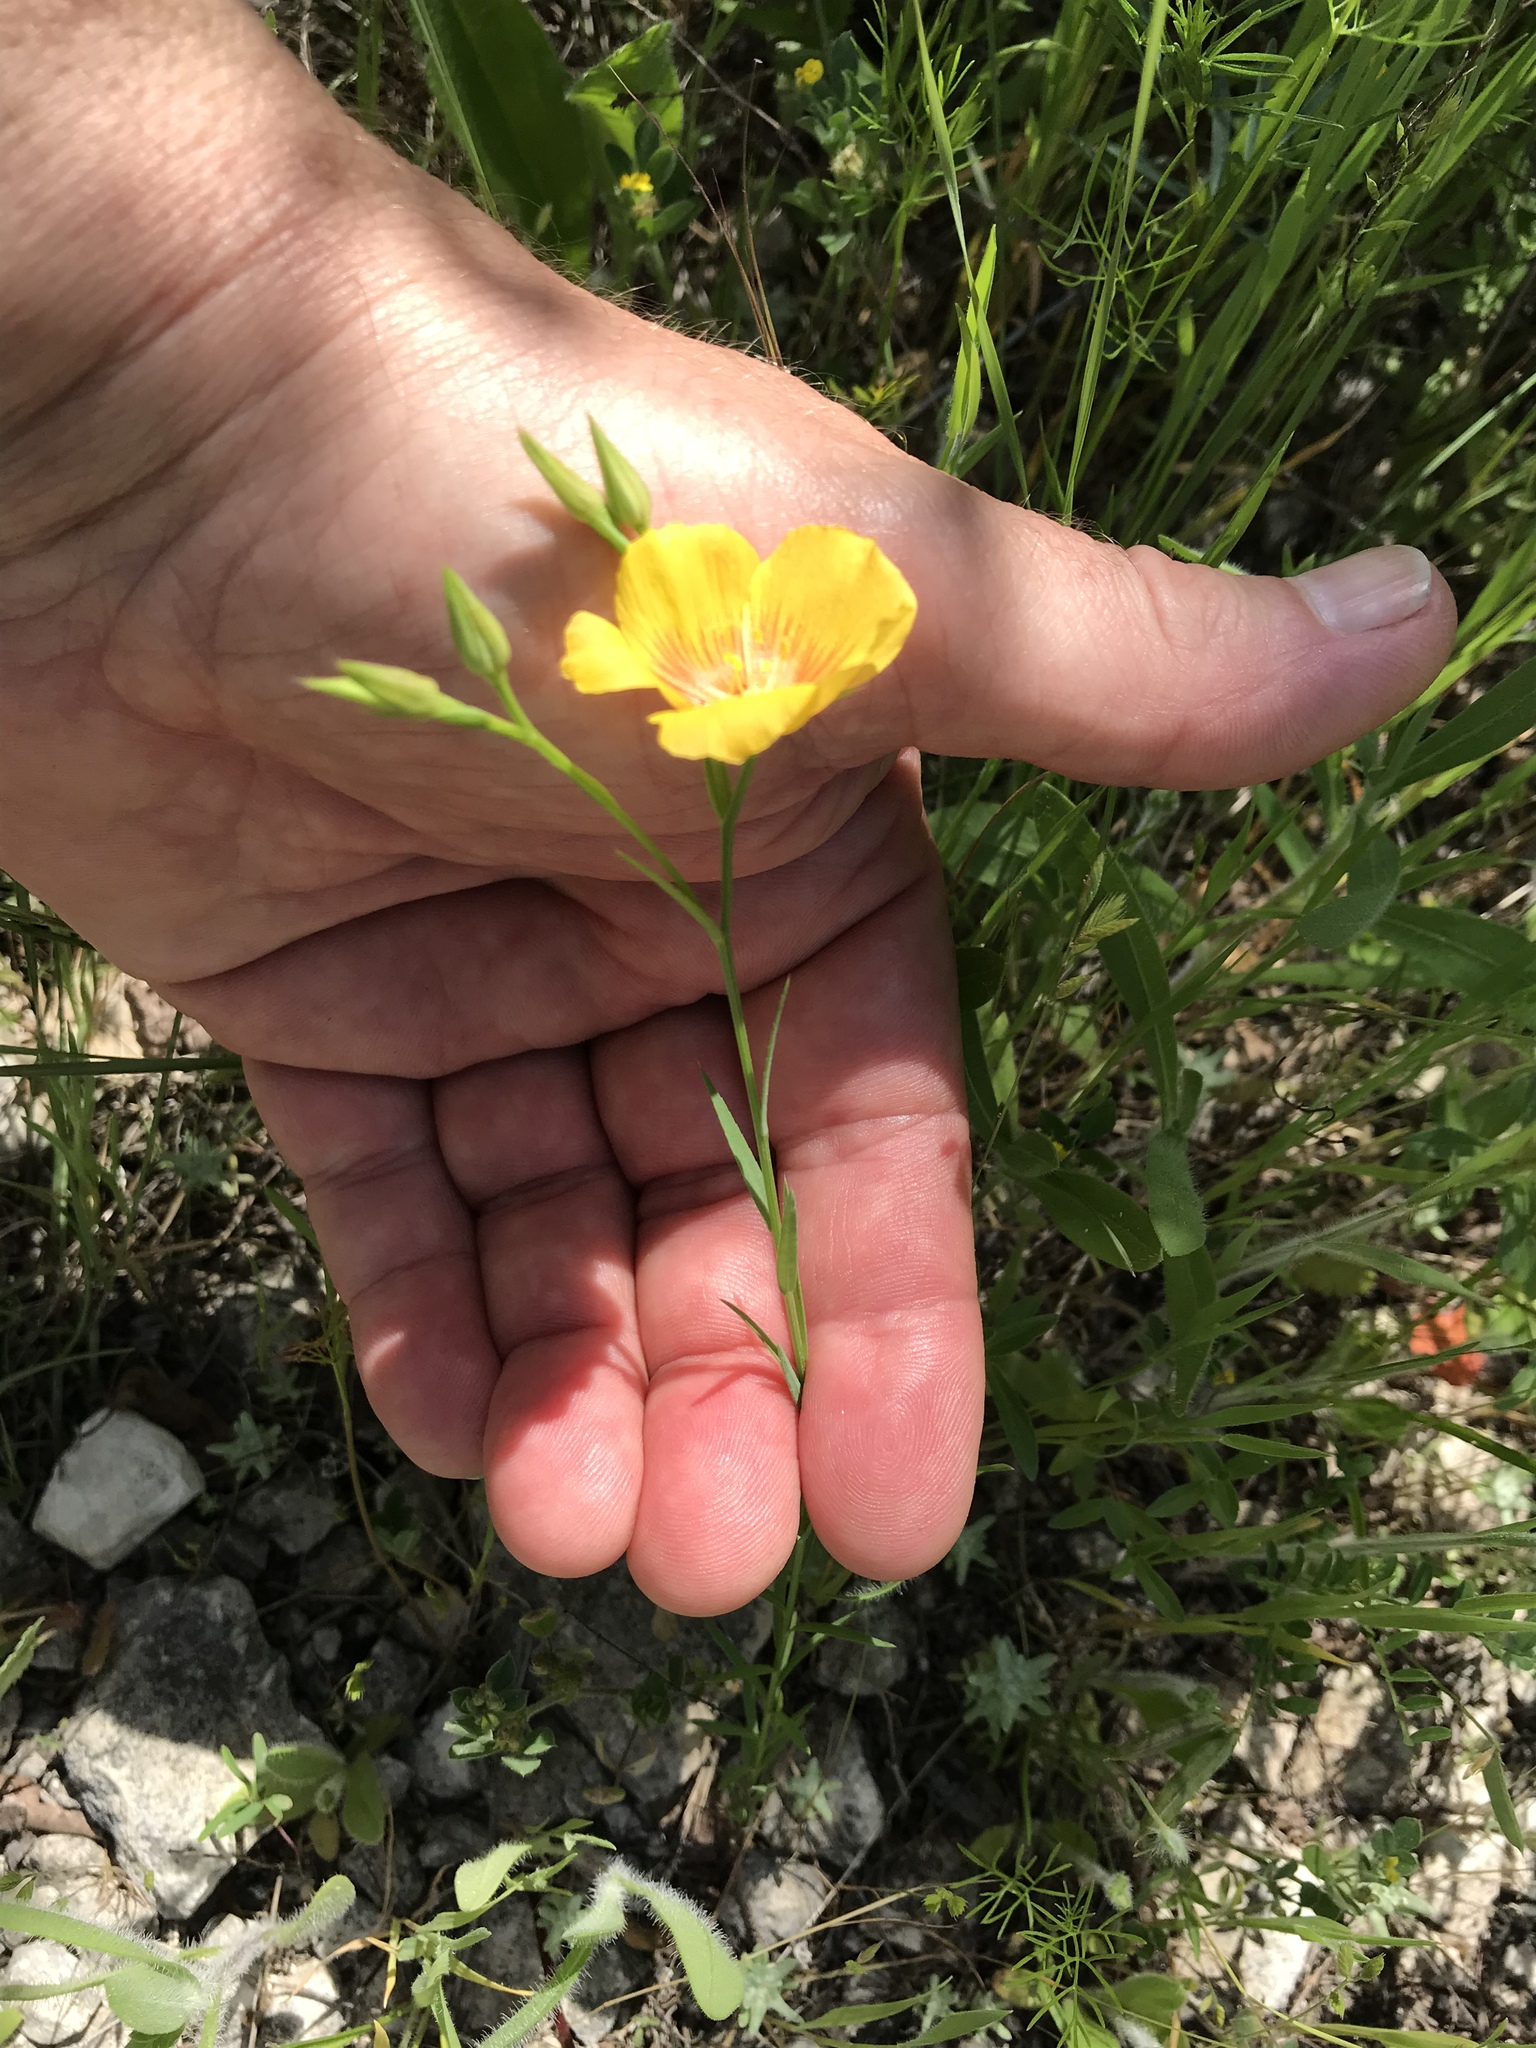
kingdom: Plantae
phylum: Tracheophyta
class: Magnoliopsida
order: Malpighiales
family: Linaceae
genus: Linum
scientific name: Linum rigidum
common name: Stiff-stem flax
